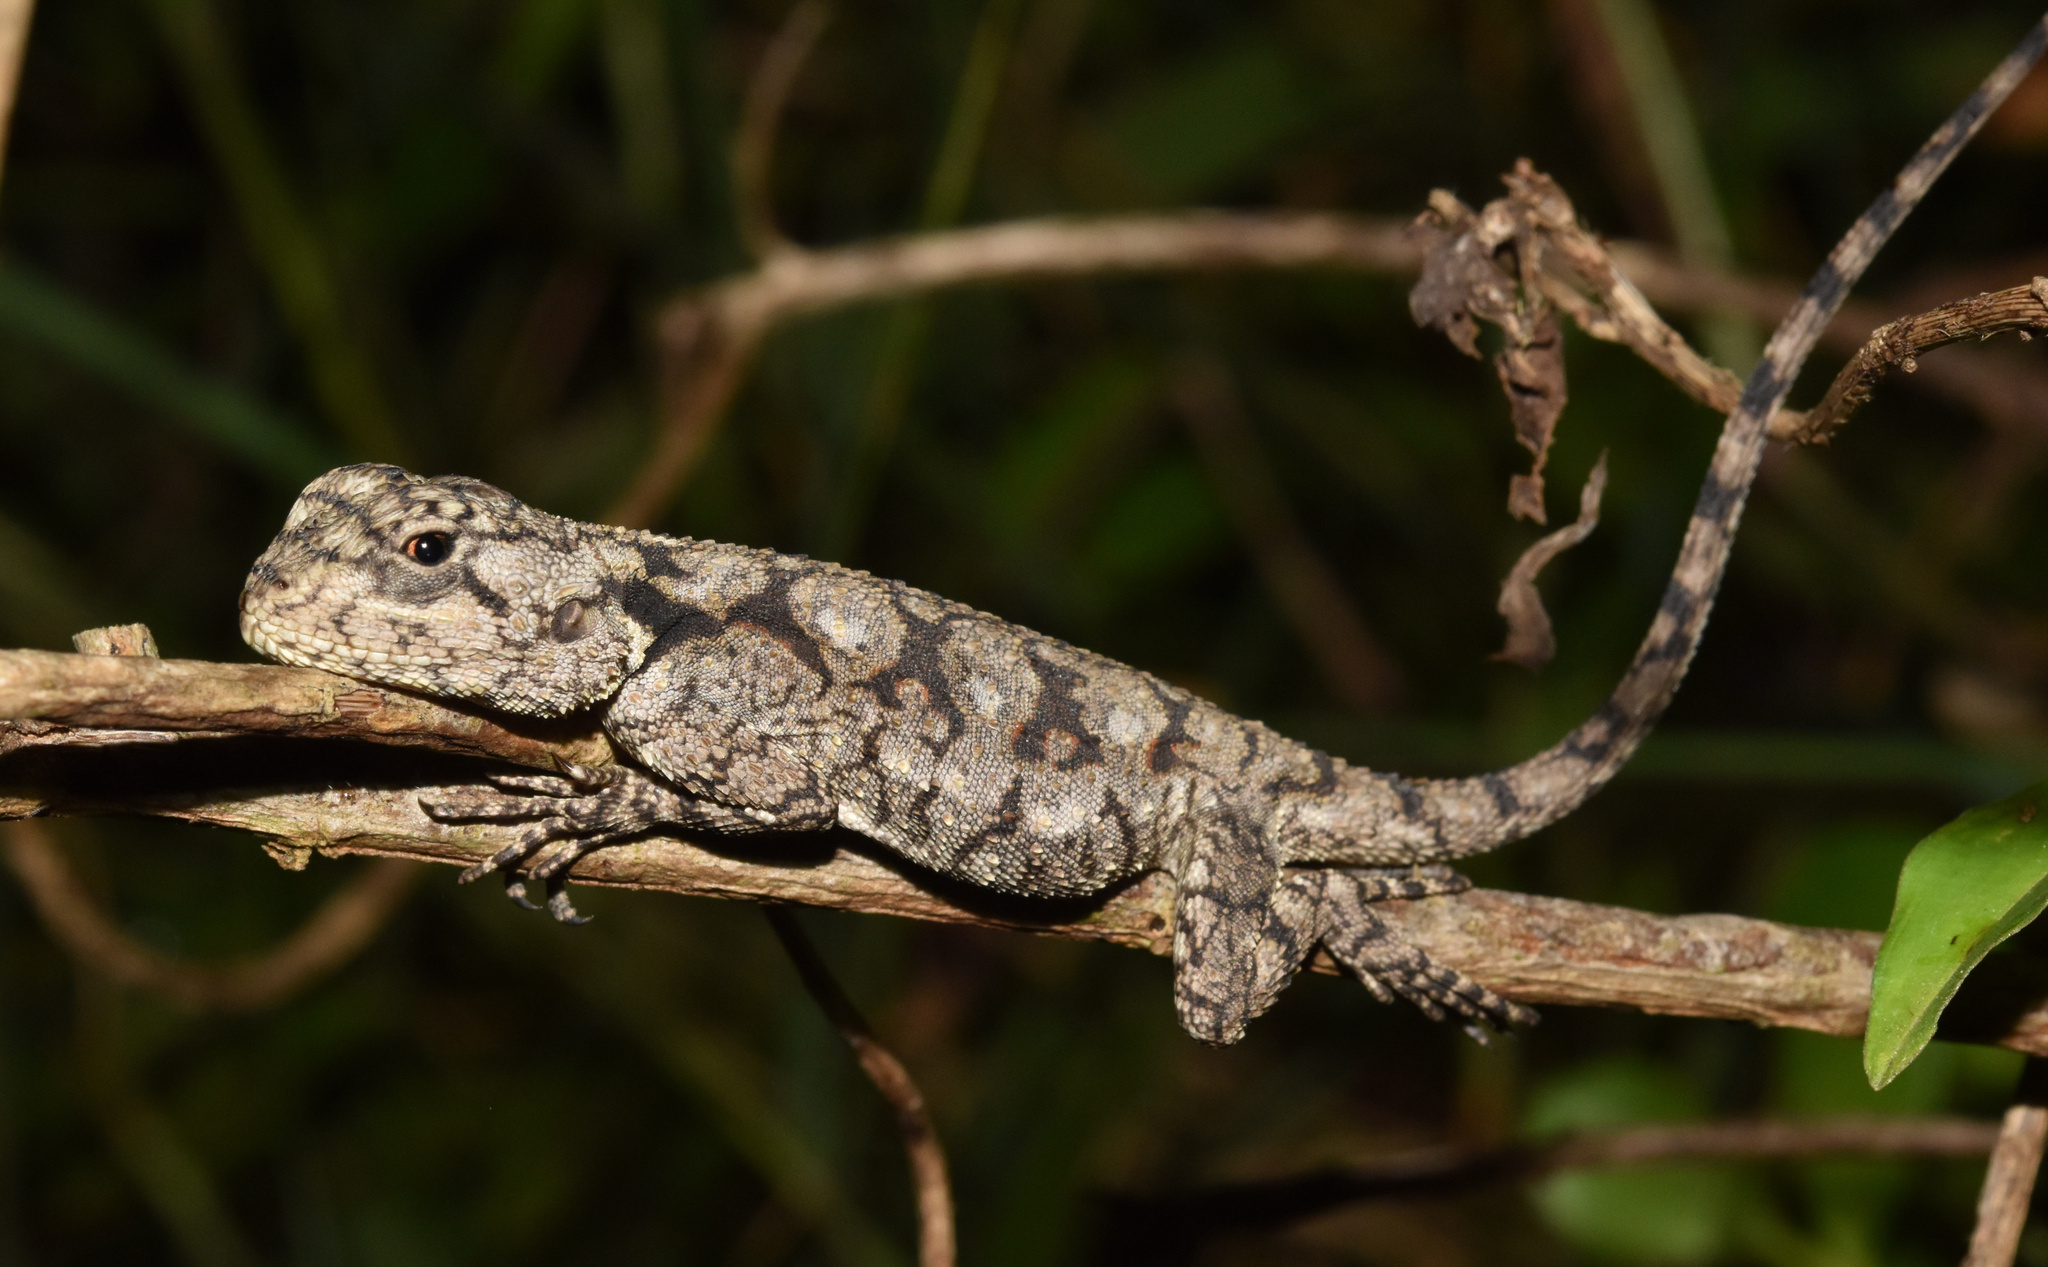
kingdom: Animalia
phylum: Chordata
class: Squamata
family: Agamidae
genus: Acanthocercus
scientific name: Acanthocercus atricollis
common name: Southern tree agama
